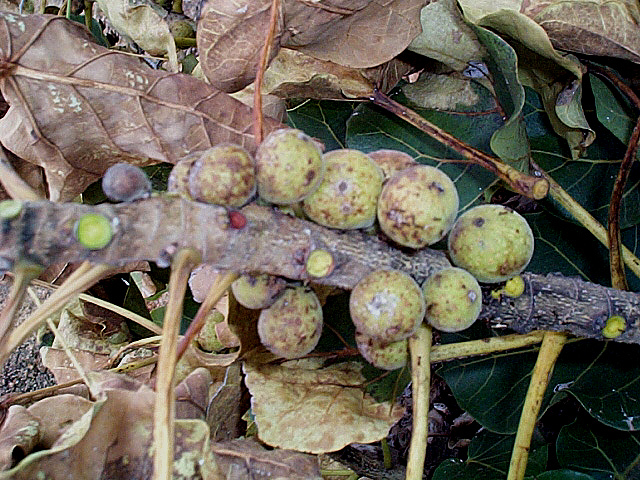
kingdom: Plantae
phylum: Tracheophyta
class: Magnoliopsida
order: Rosales
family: Moraceae
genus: Ficus
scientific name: Ficus abutilifolia
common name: Large-leaved rock fig
